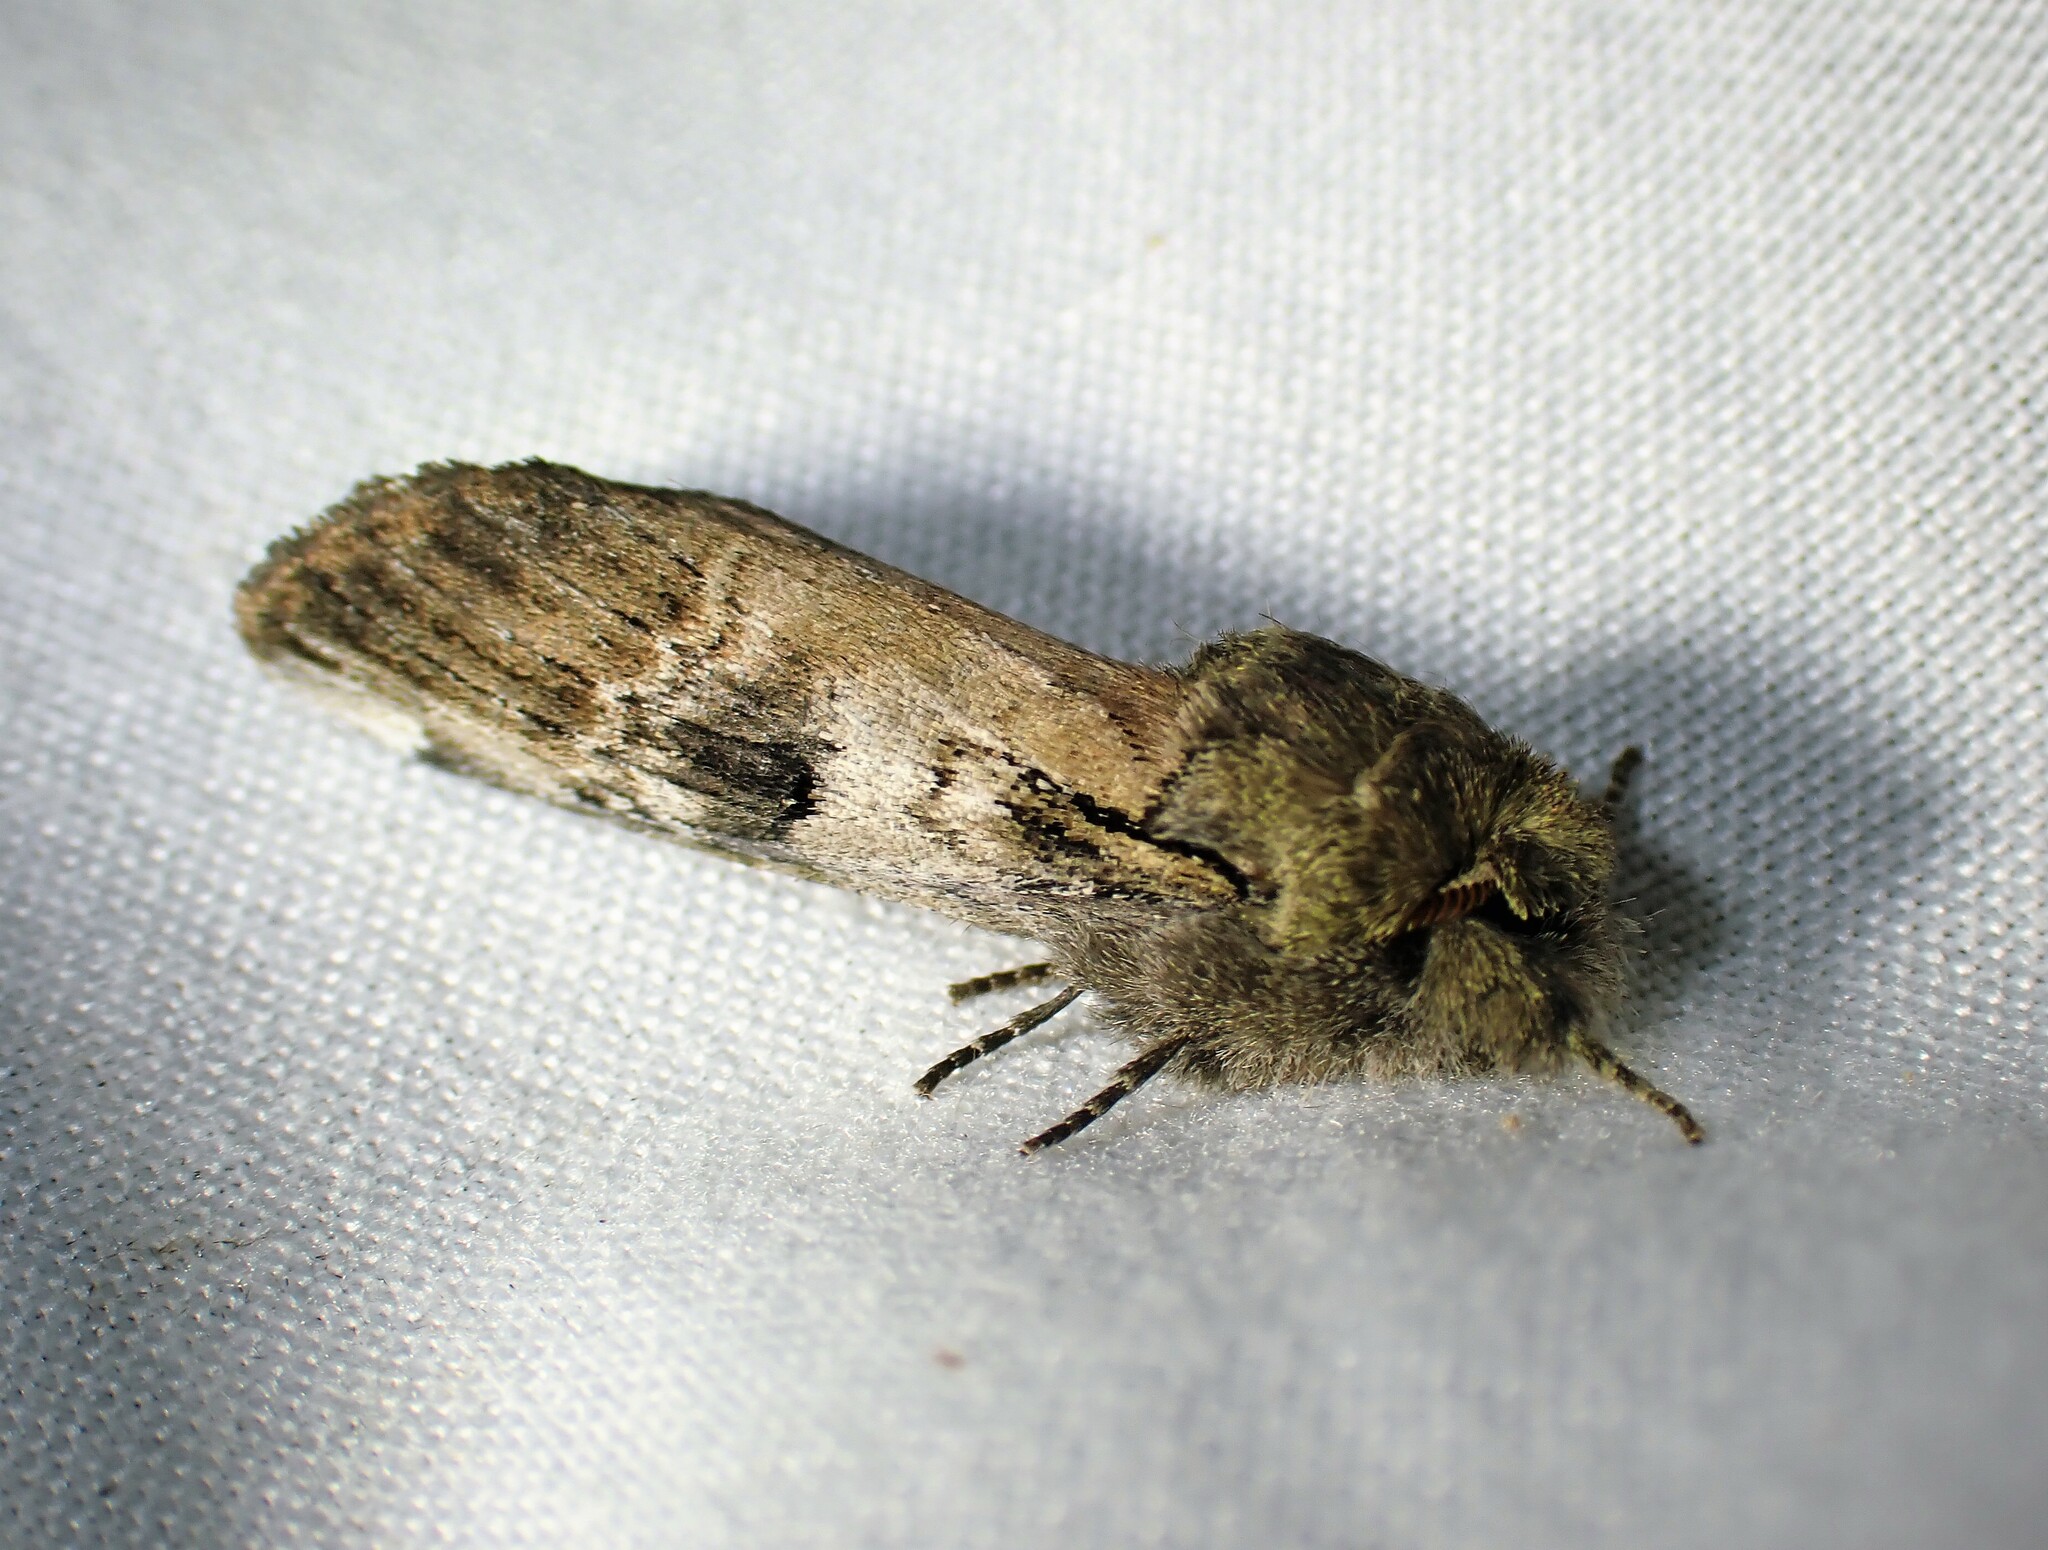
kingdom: Animalia
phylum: Arthropoda
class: Insecta
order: Lepidoptera
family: Notodontidae
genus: Schizura
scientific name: Schizura
